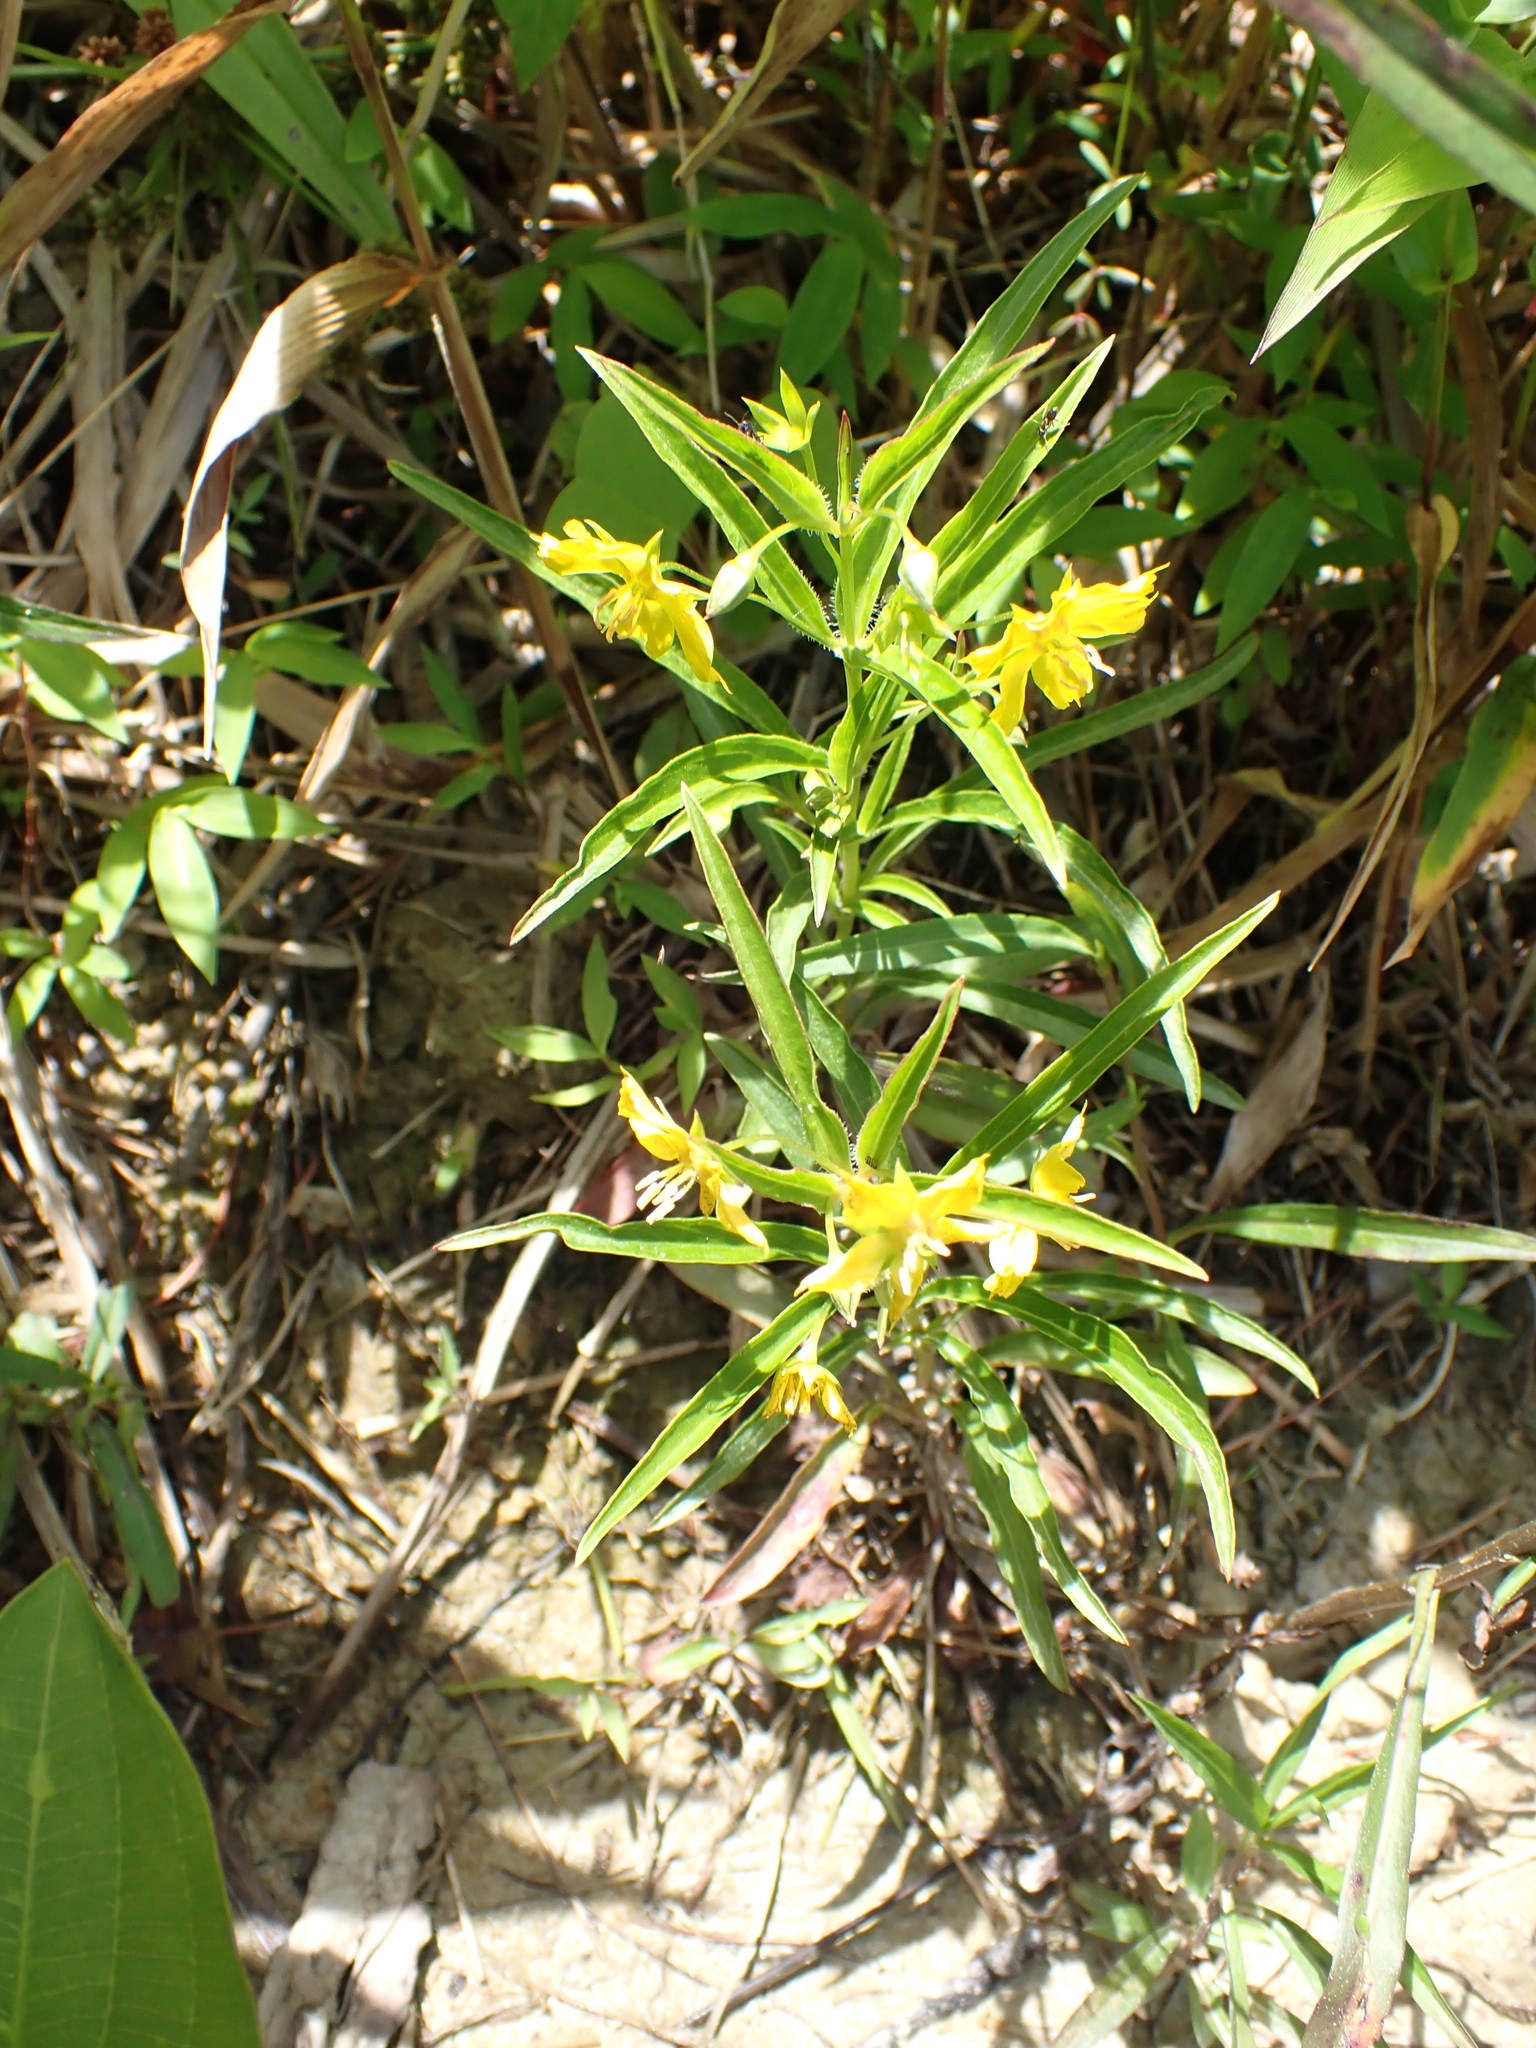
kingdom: Plantae
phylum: Tracheophyta
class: Magnoliopsida
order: Ericales
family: Primulaceae
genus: Lysimachia
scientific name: Lysimachia lanceolata
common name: Lance-leaved loosestrife
